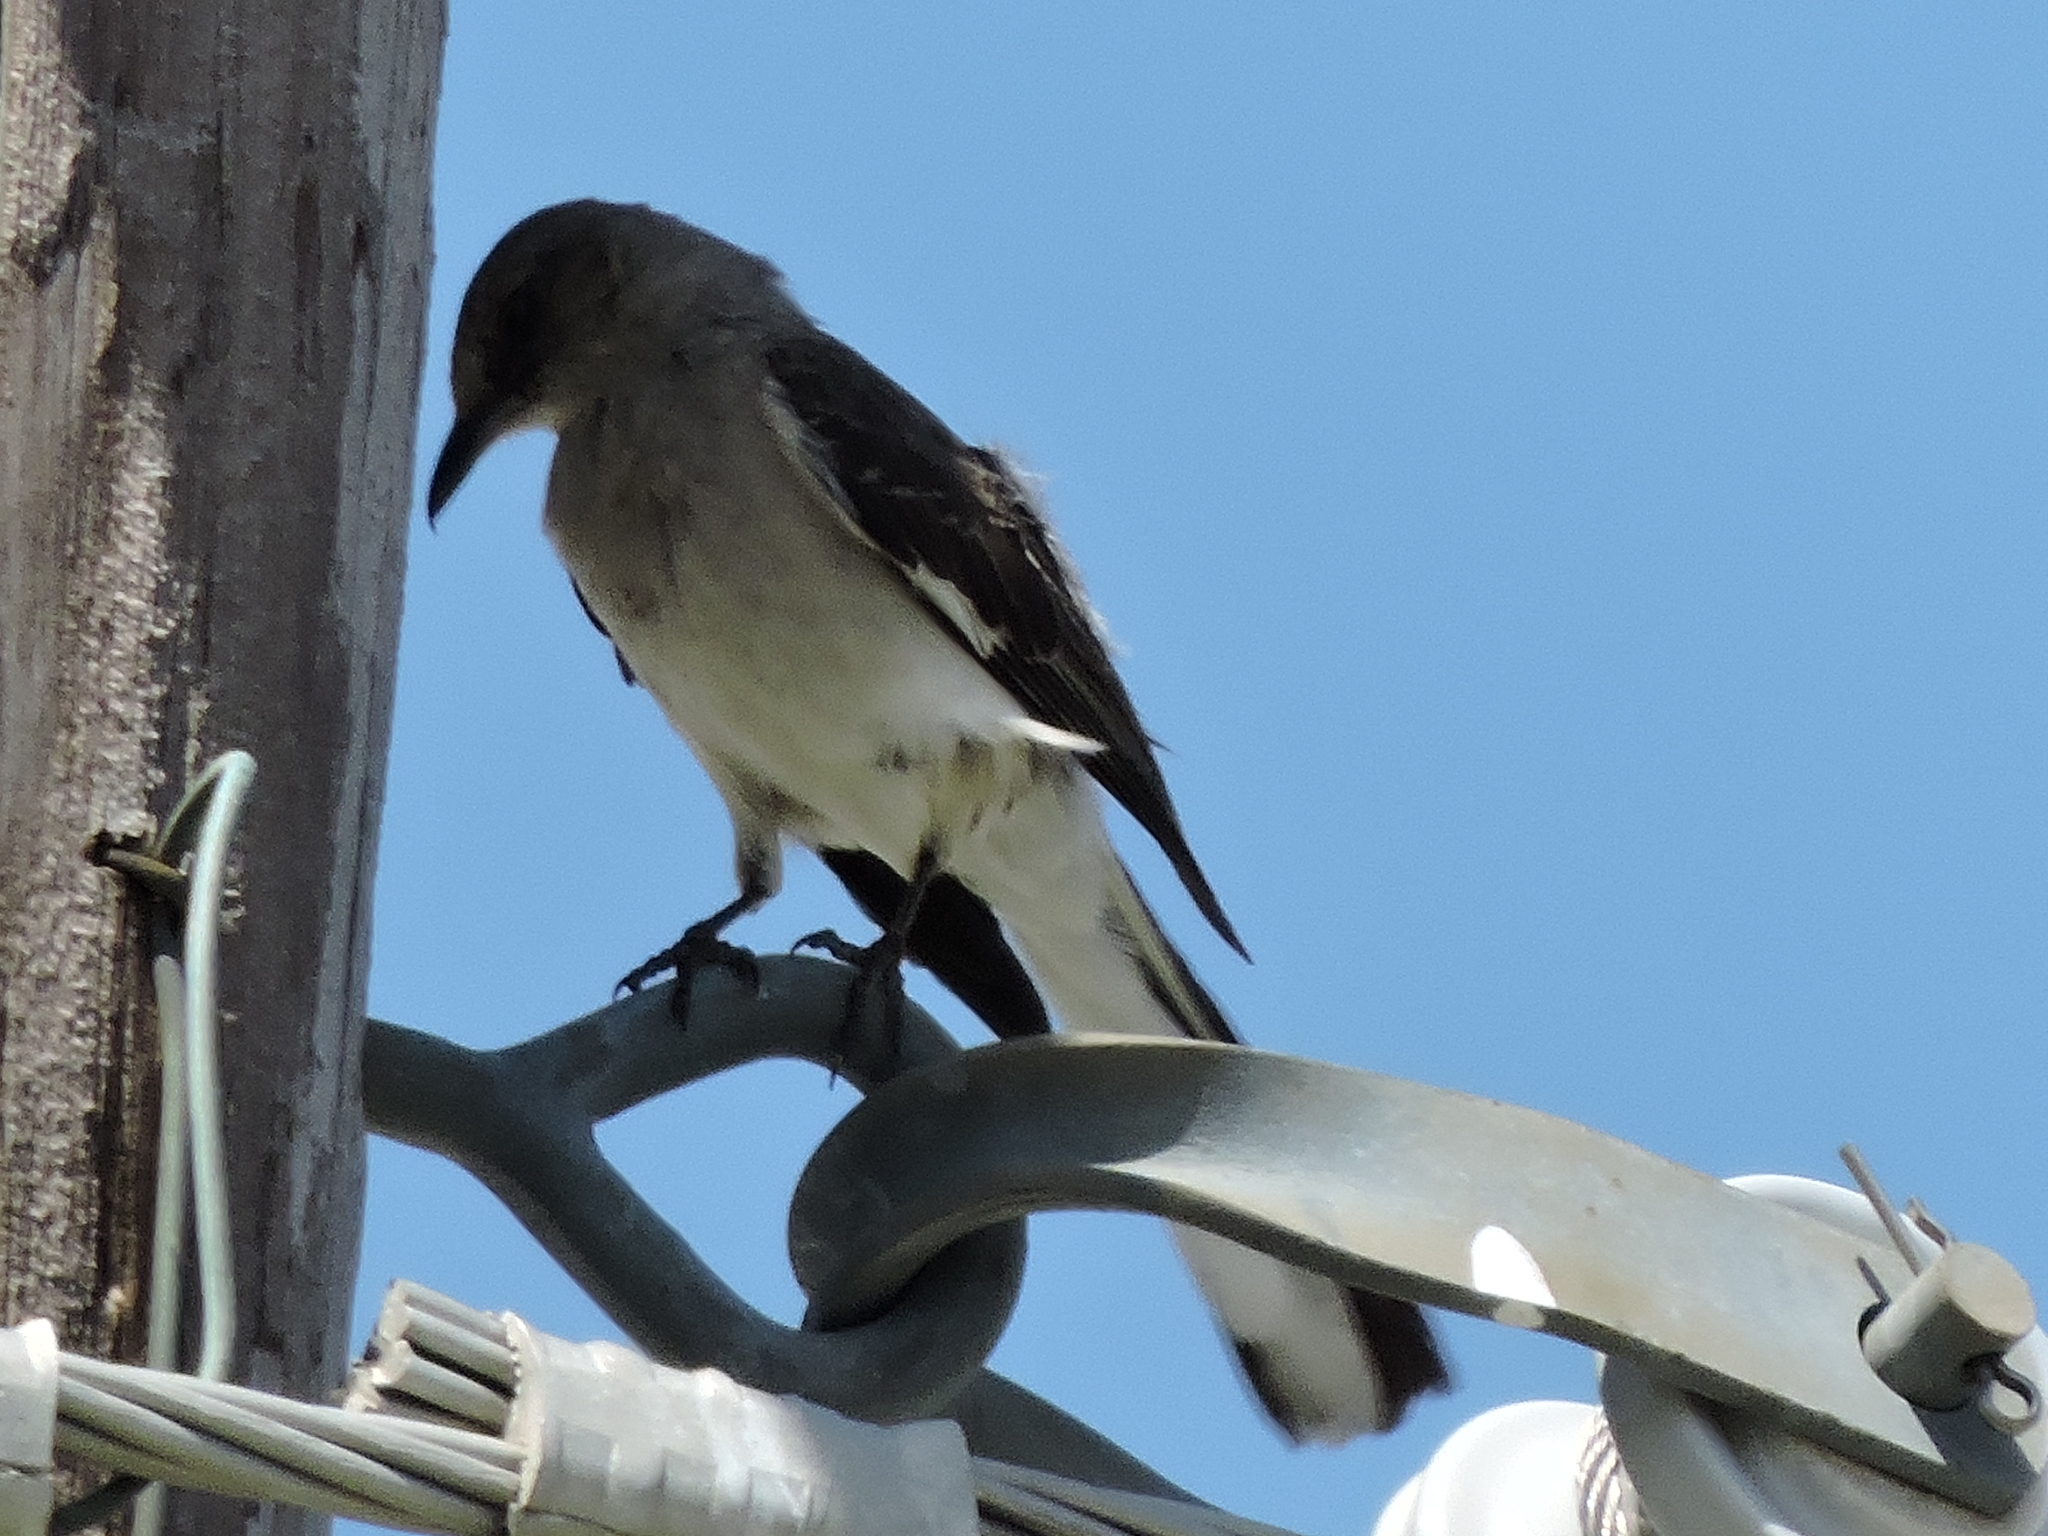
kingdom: Animalia
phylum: Chordata
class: Aves
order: Passeriformes
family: Mimidae
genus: Mimus
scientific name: Mimus polyglottos
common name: Northern mockingbird
